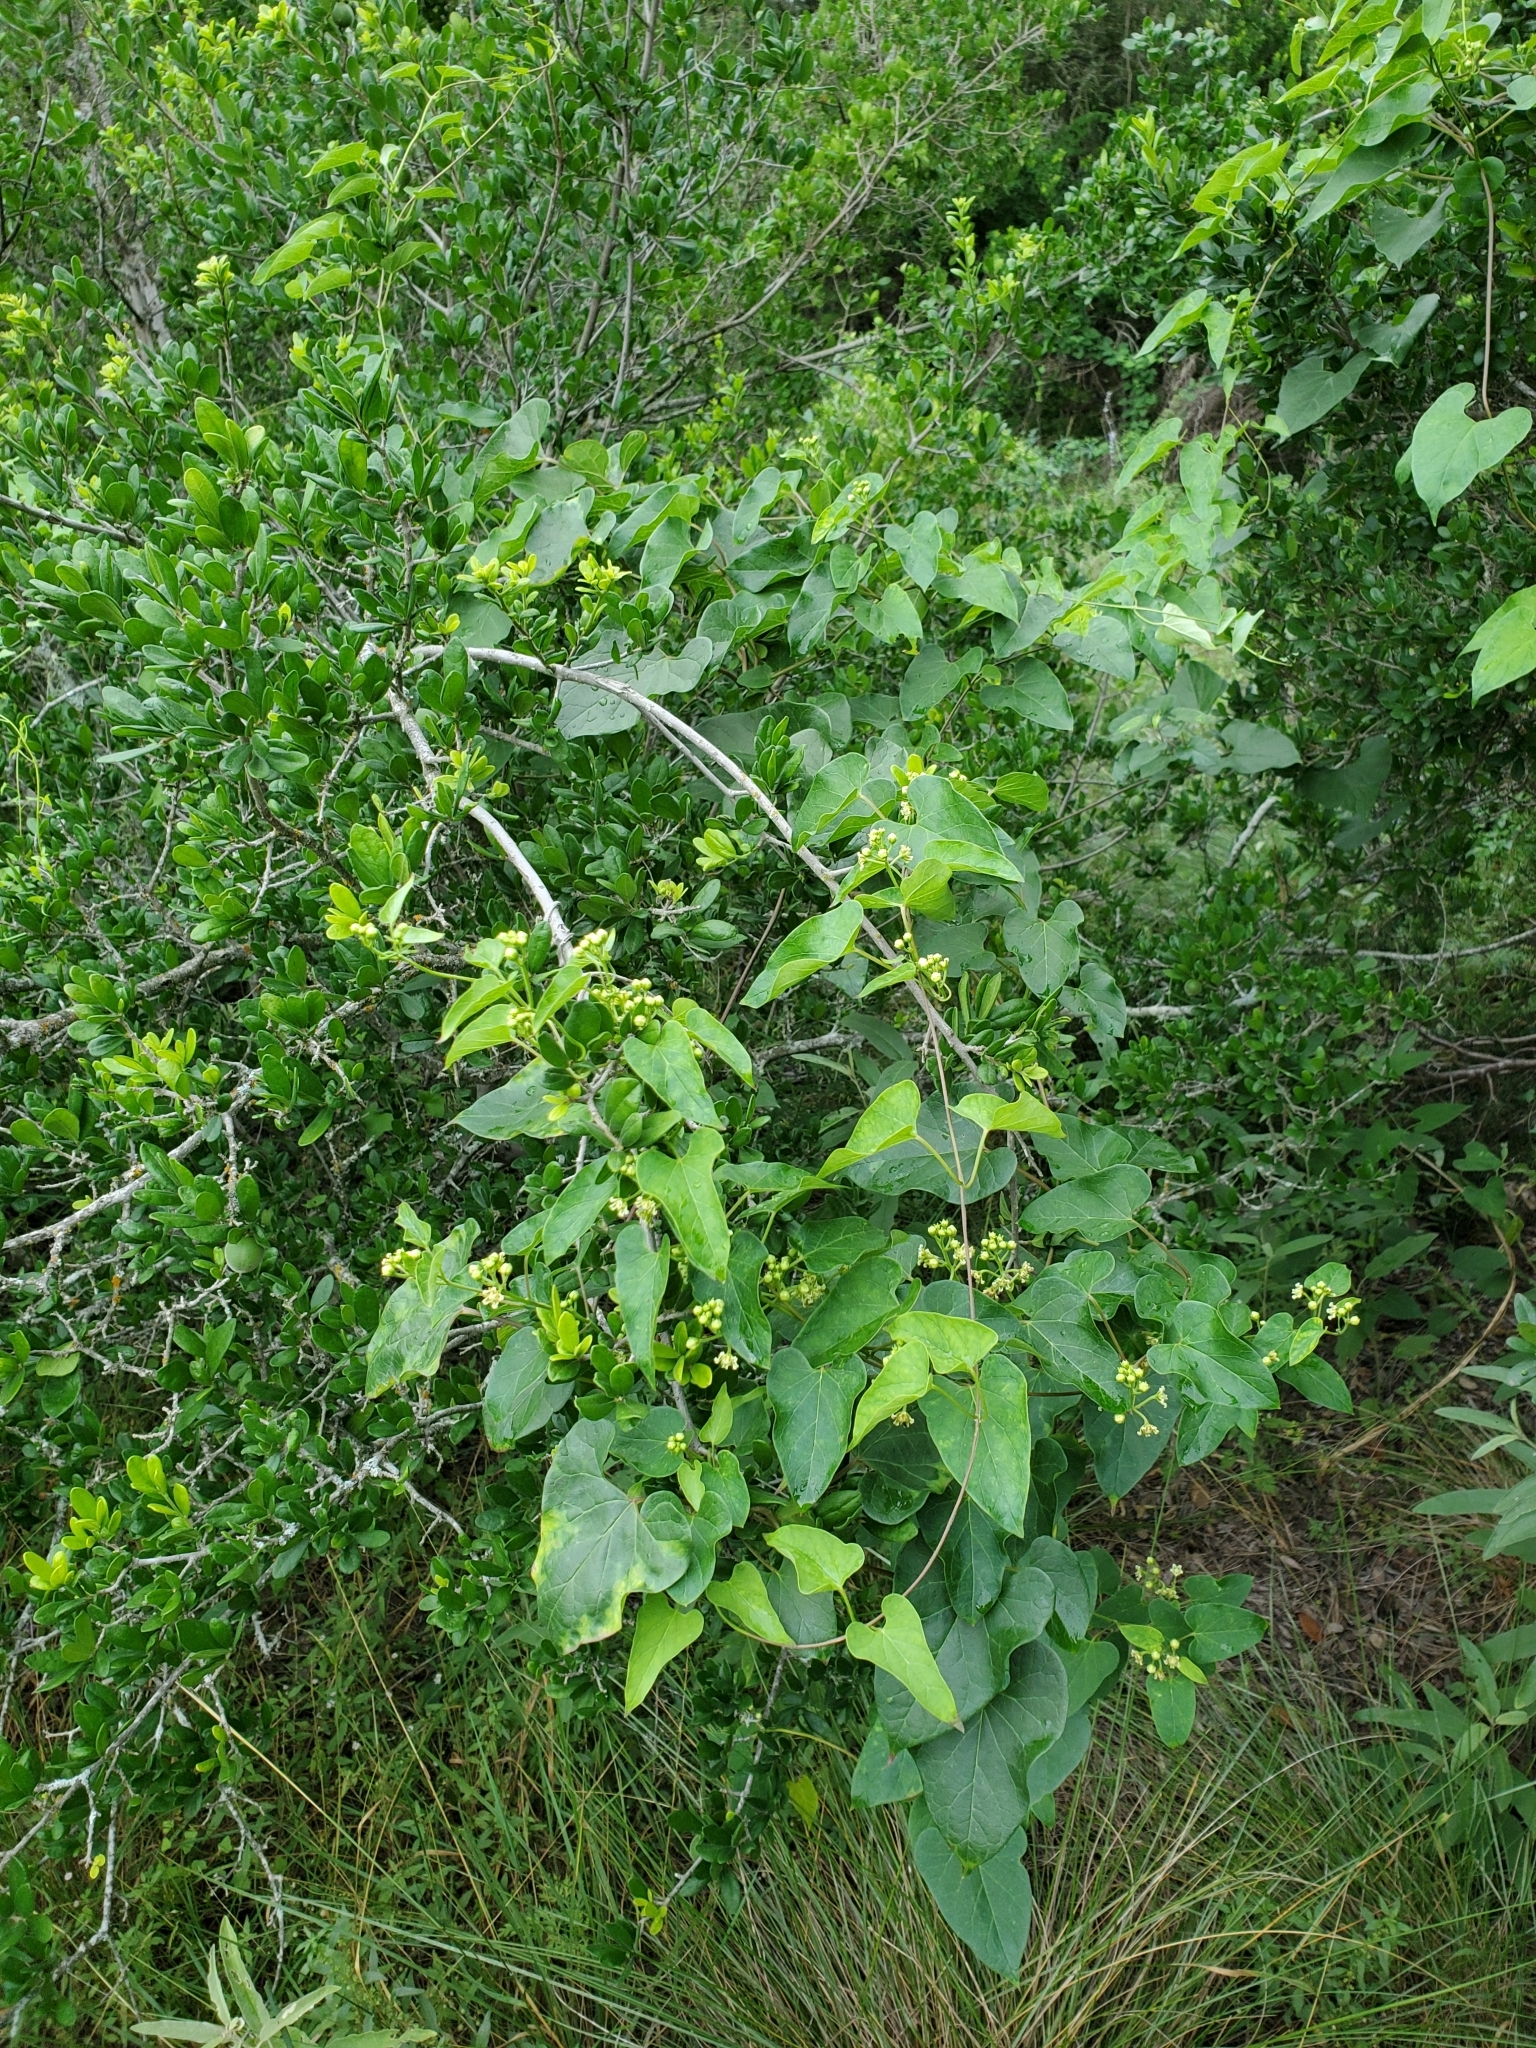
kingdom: Plantae
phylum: Tracheophyta
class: Magnoliopsida
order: Gentianales
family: Apocynaceae
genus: Cynanchum
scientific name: Cynanchum racemosum
